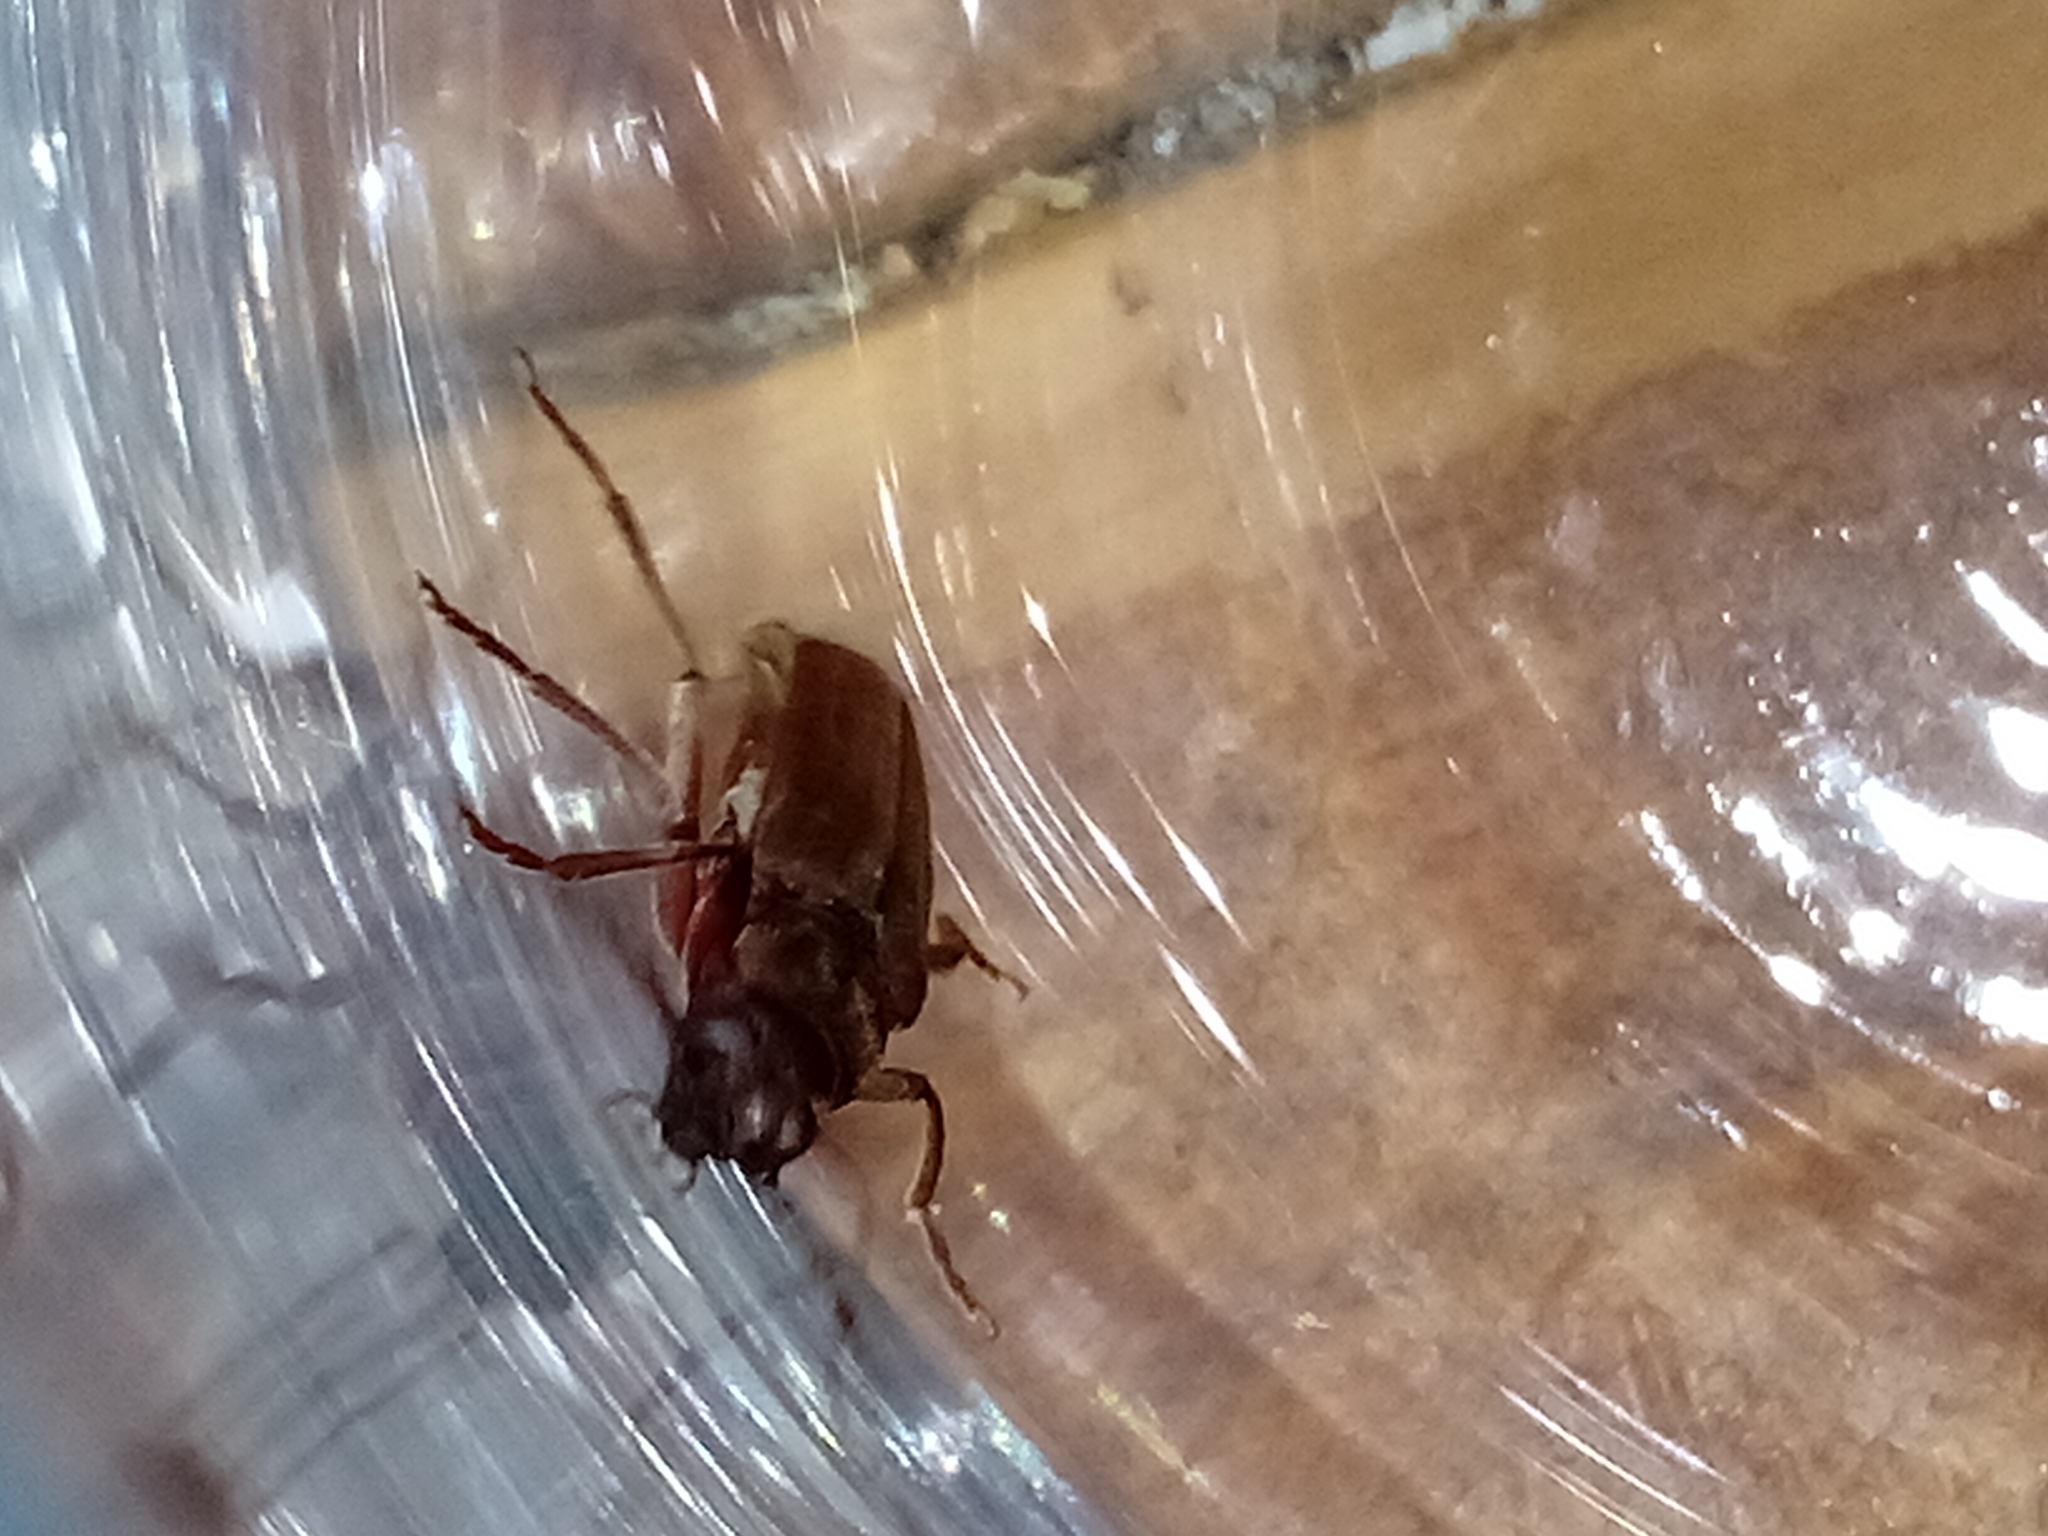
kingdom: Animalia
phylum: Arthropoda
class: Insecta
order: Coleoptera
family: Cerambycidae
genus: Arhopalus
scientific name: Arhopalus ferus
